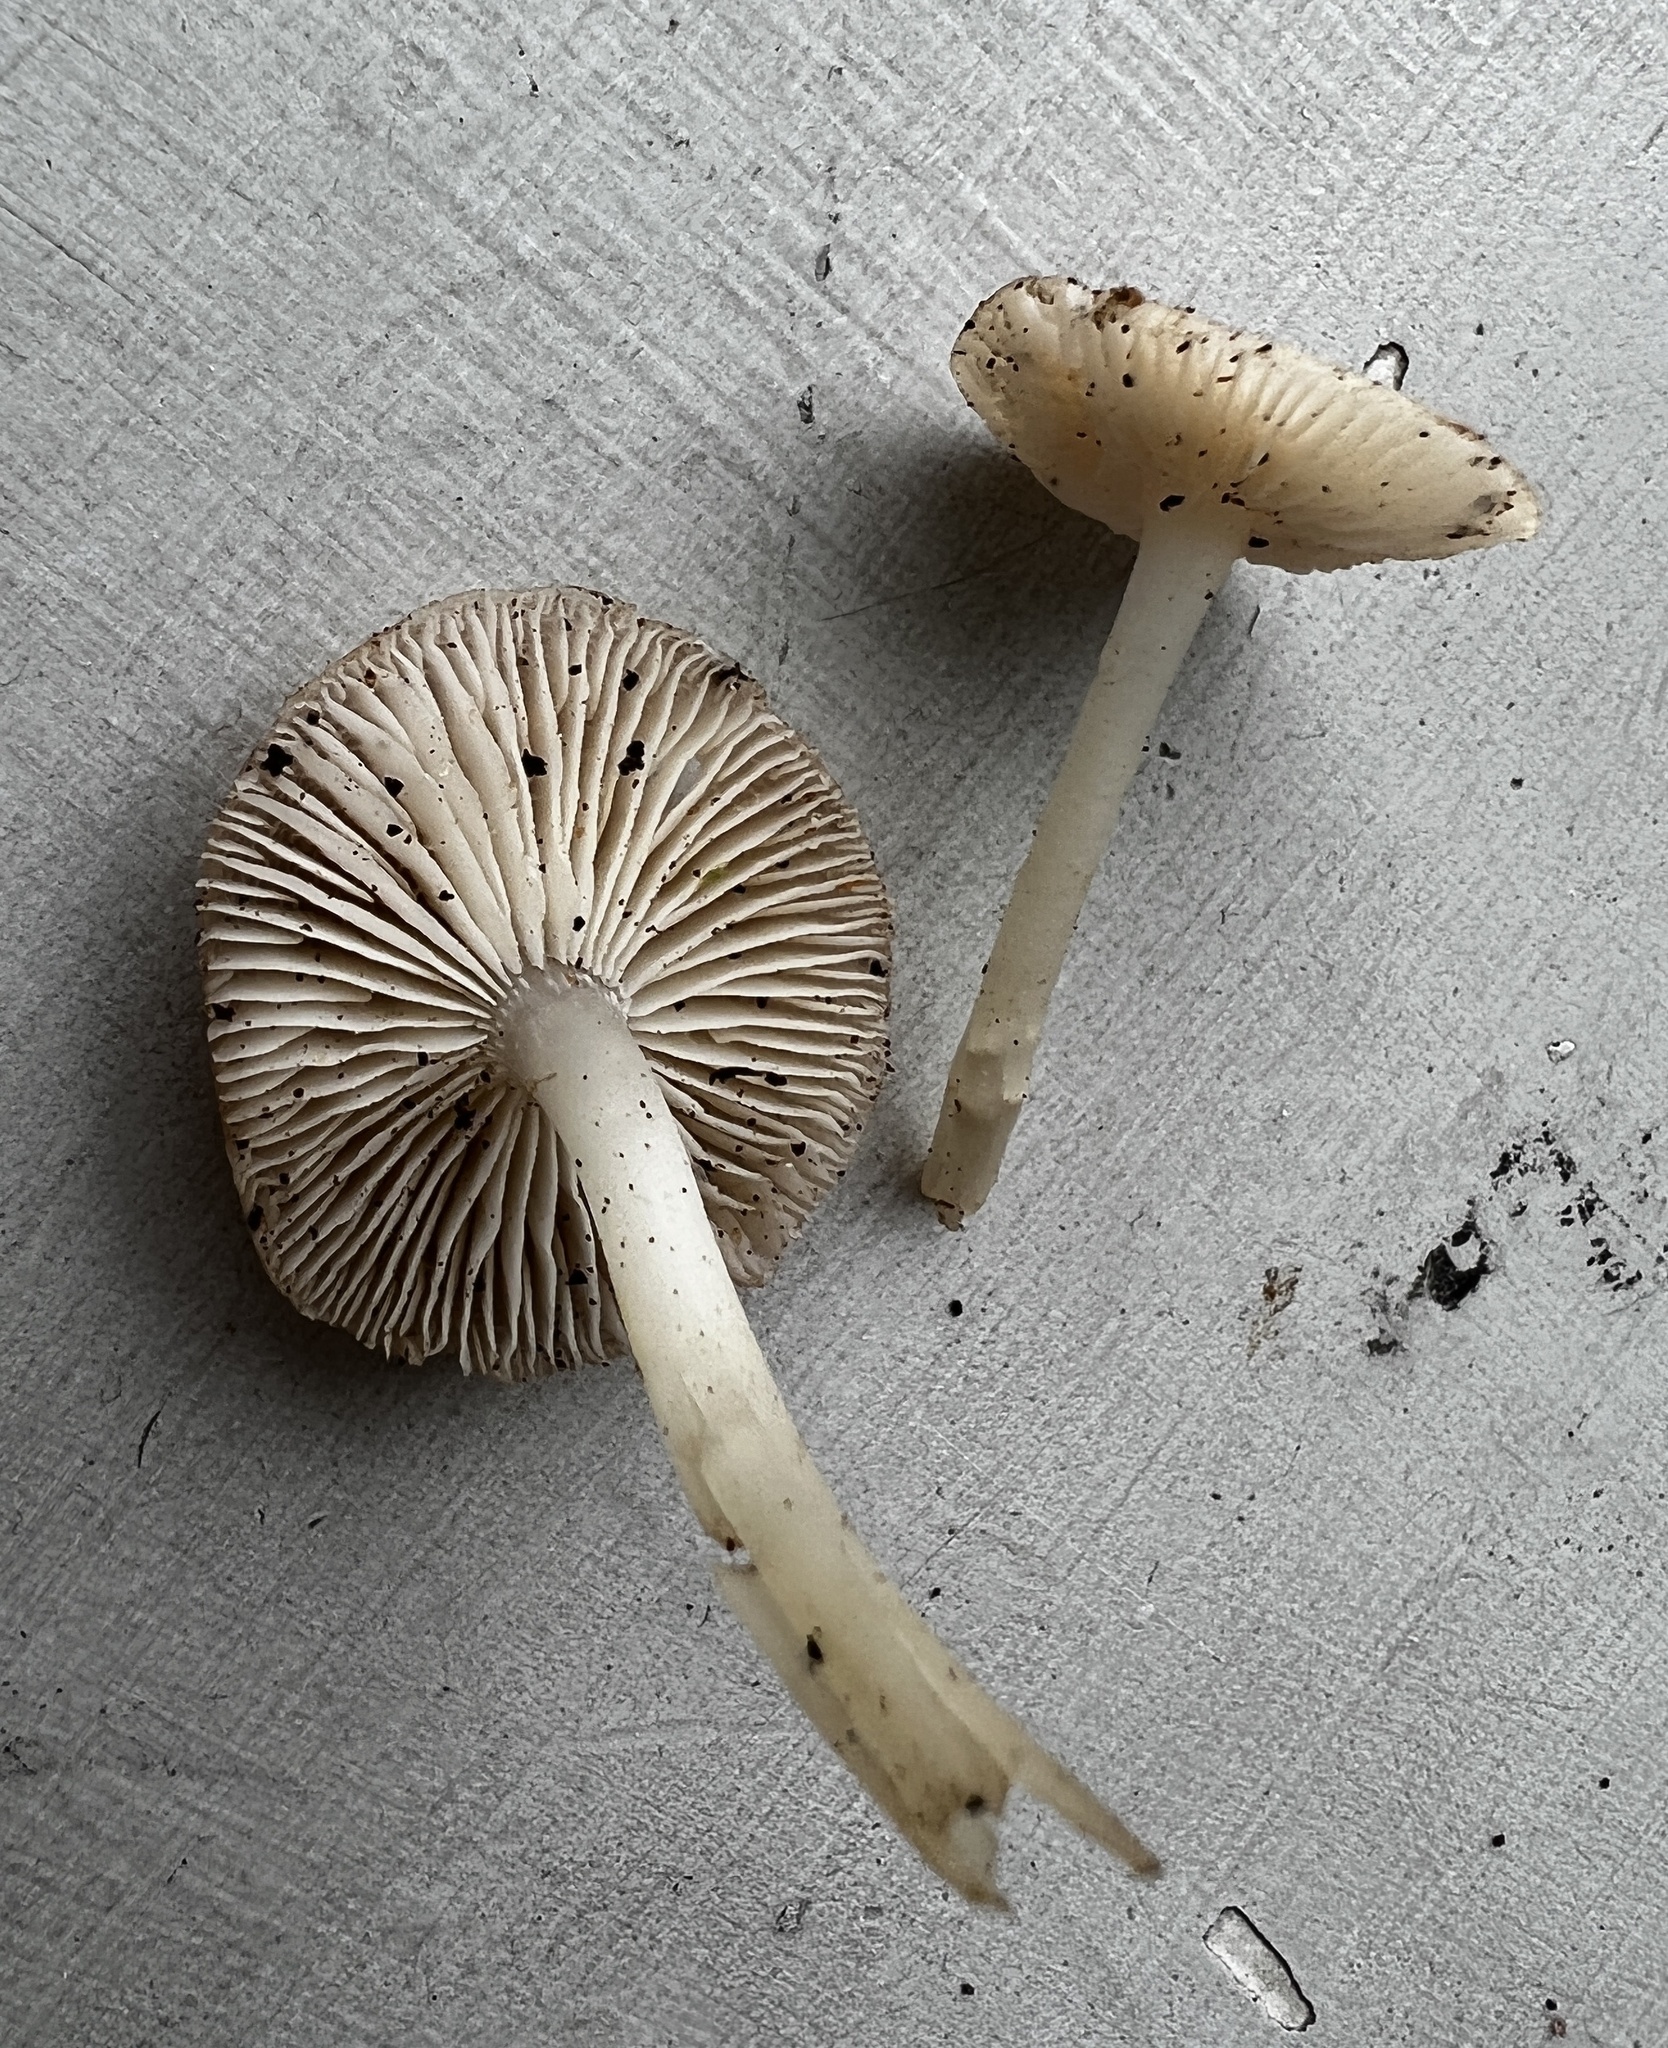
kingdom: Fungi
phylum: Basidiomycota
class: Agaricomycetes
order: Agaricales
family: Mycenaceae
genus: Mycena
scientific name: Mycena pura
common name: Lilac bonnet
